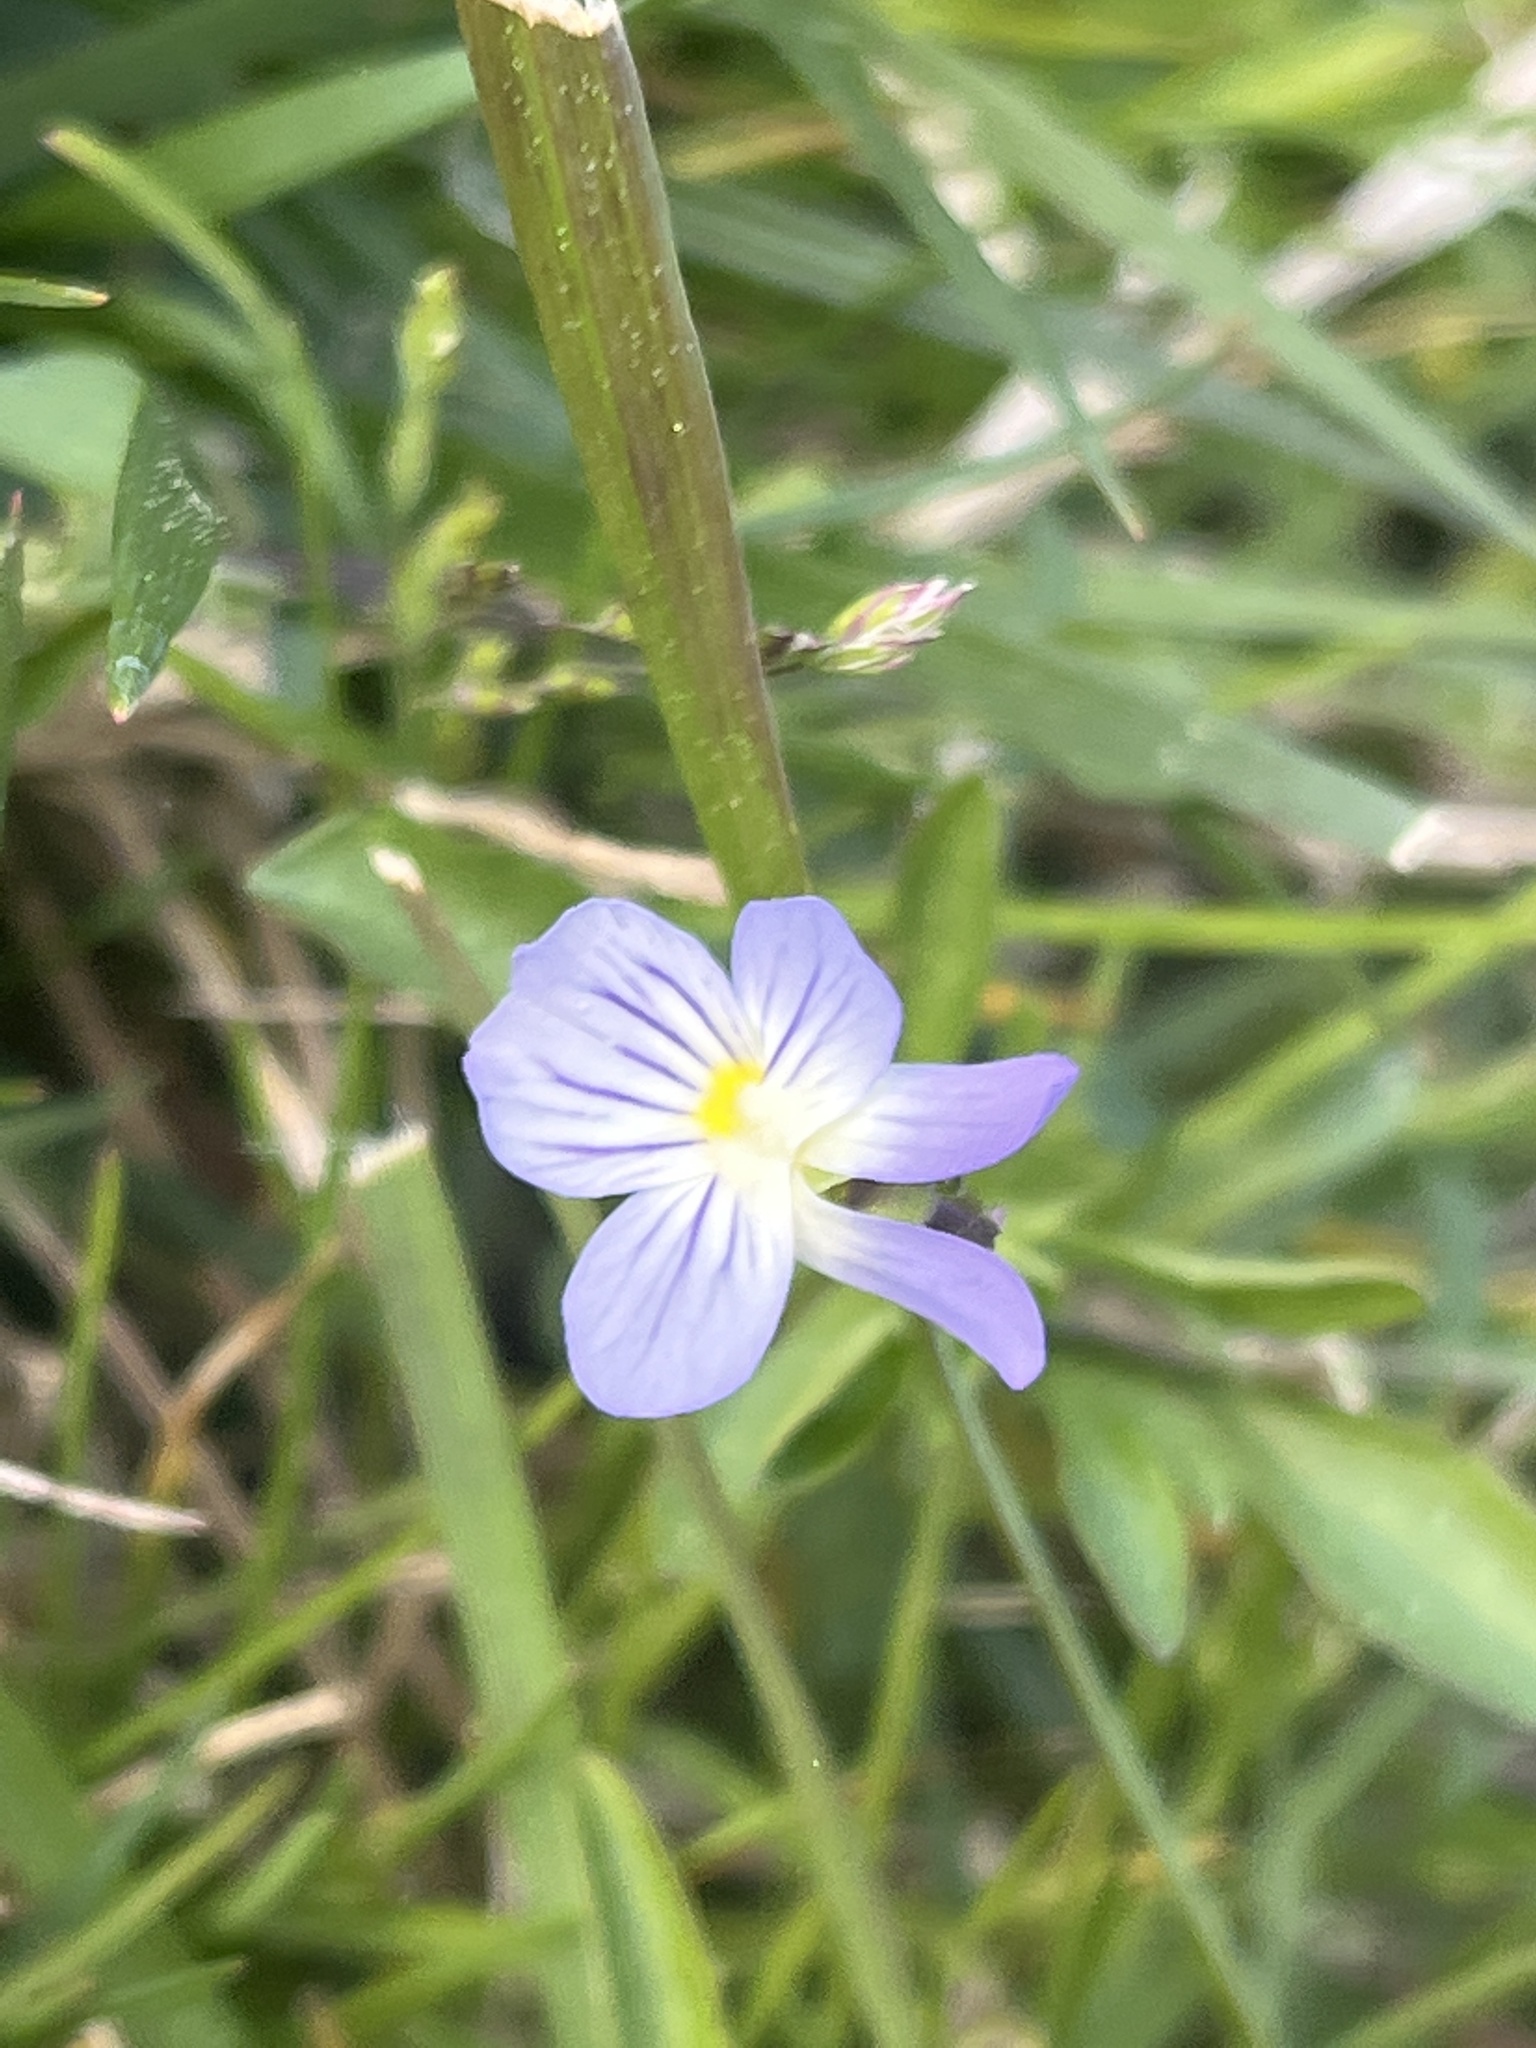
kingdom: Plantae
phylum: Tracheophyta
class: Magnoliopsida
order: Malpighiales
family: Violaceae
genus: Viola
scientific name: Viola rafinesquei
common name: American field pansy
